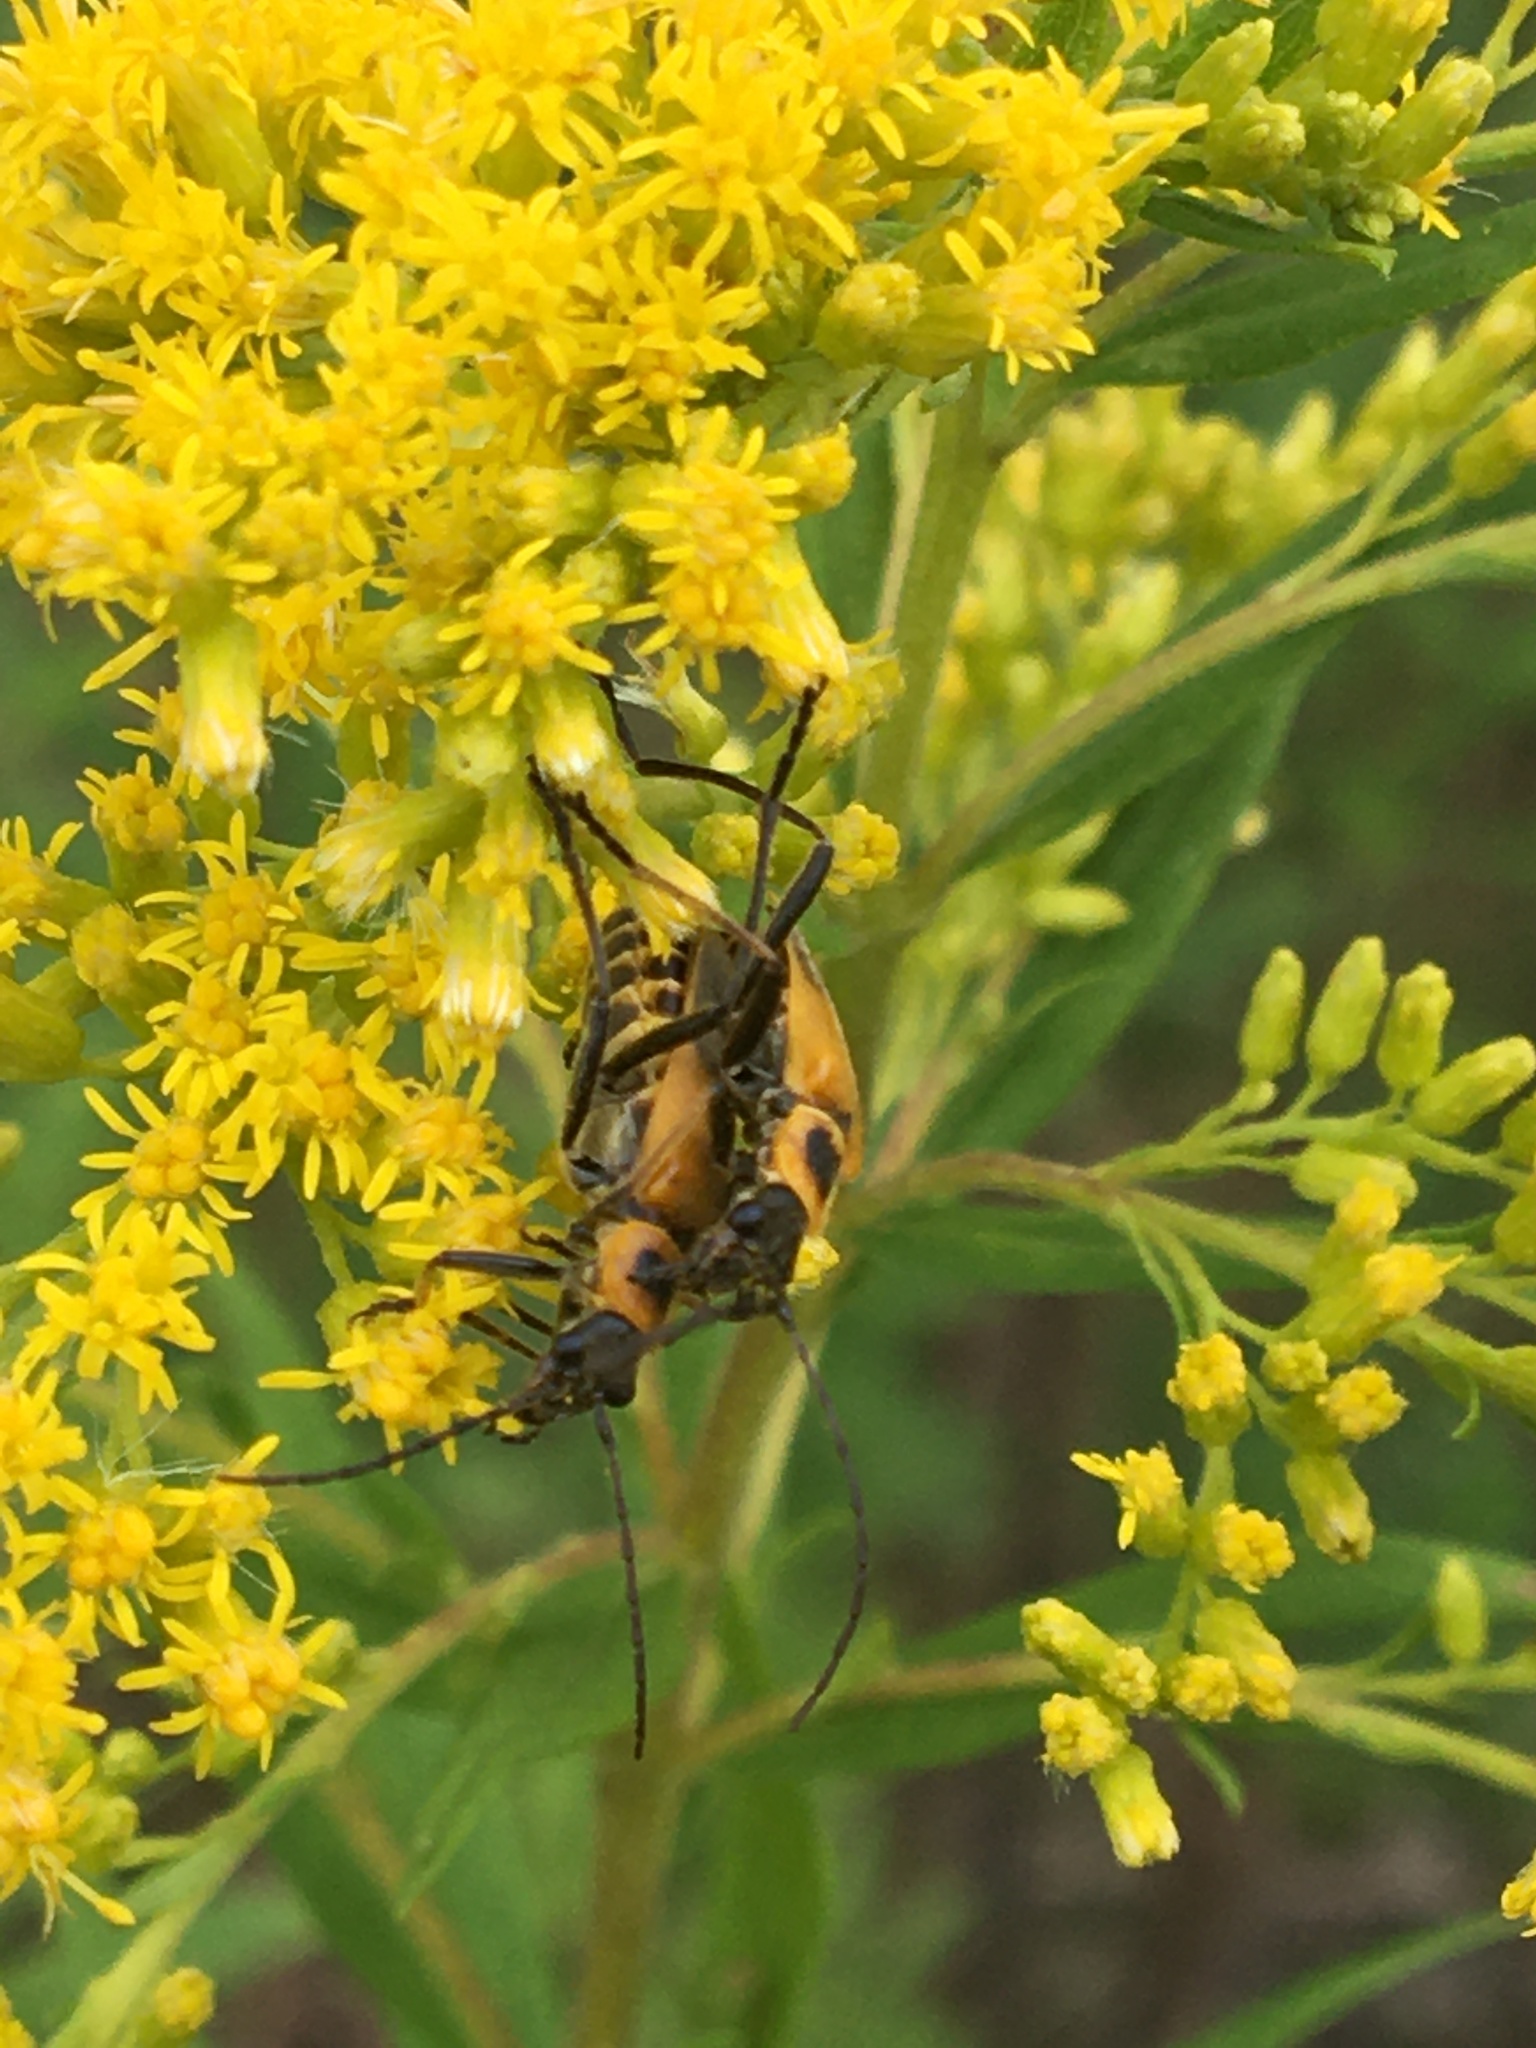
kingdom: Animalia
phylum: Arthropoda
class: Insecta
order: Coleoptera
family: Cantharidae
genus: Chauliognathus
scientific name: Chauliognathus pensylvanicus
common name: Goldenrod soldier beetle
